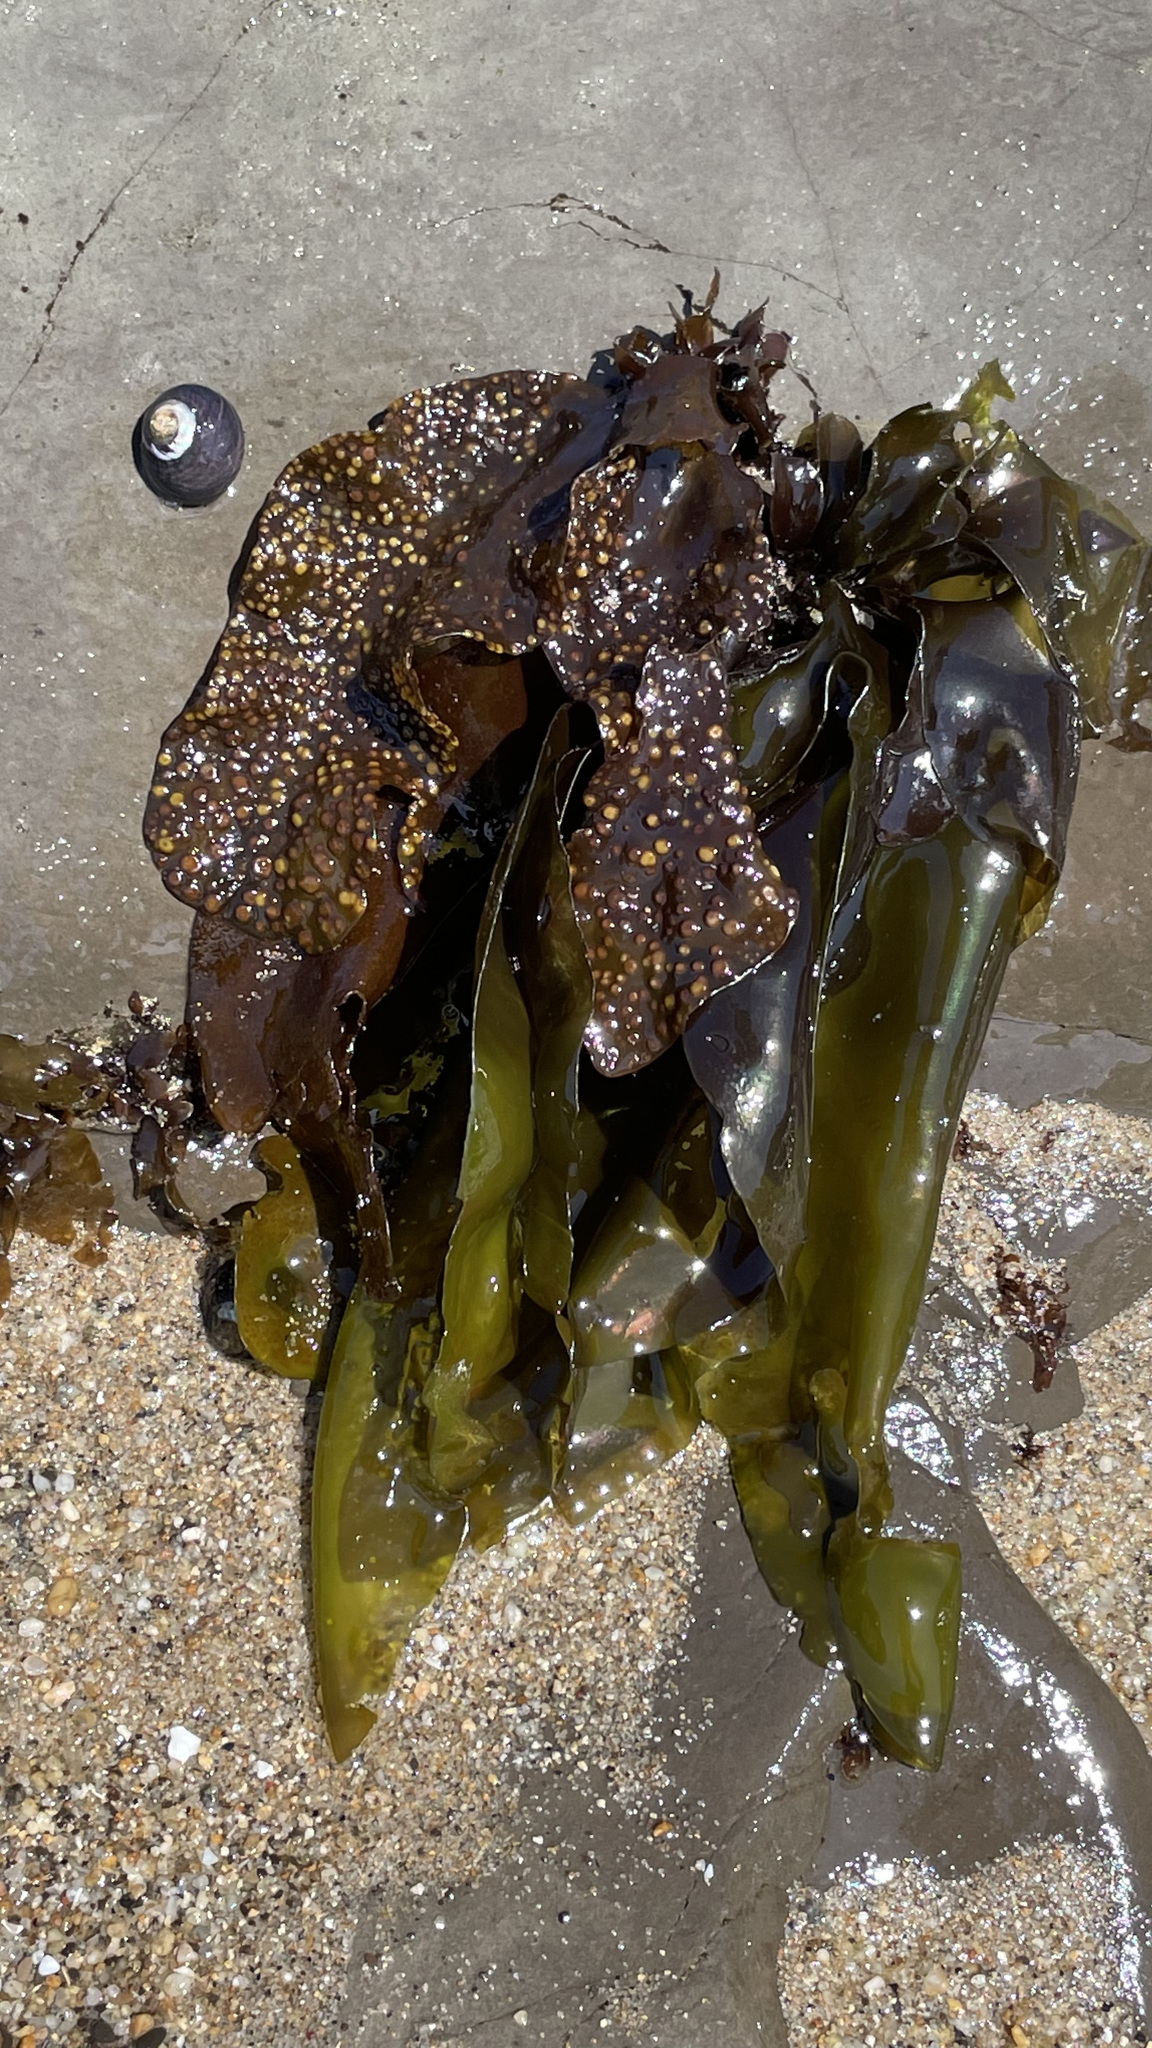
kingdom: Plantae
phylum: Rhodophyta
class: Florideophyceae
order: Gigartinales
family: Gigartinaceae
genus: Mazzaella
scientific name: Mazzaella flaccida
